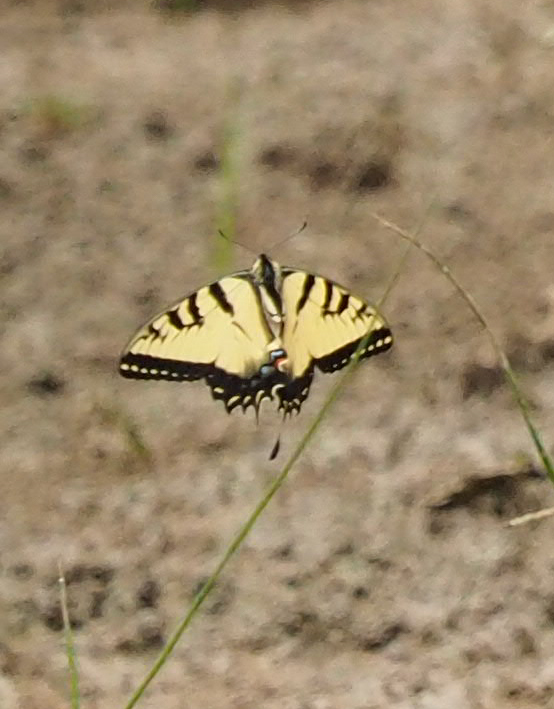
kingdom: Animalia
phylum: Arthropoda
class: Insecta
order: Lepidoptera
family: Papilionidae
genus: Papilio
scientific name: Papilio glaucus
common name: Tiger swallowtail
